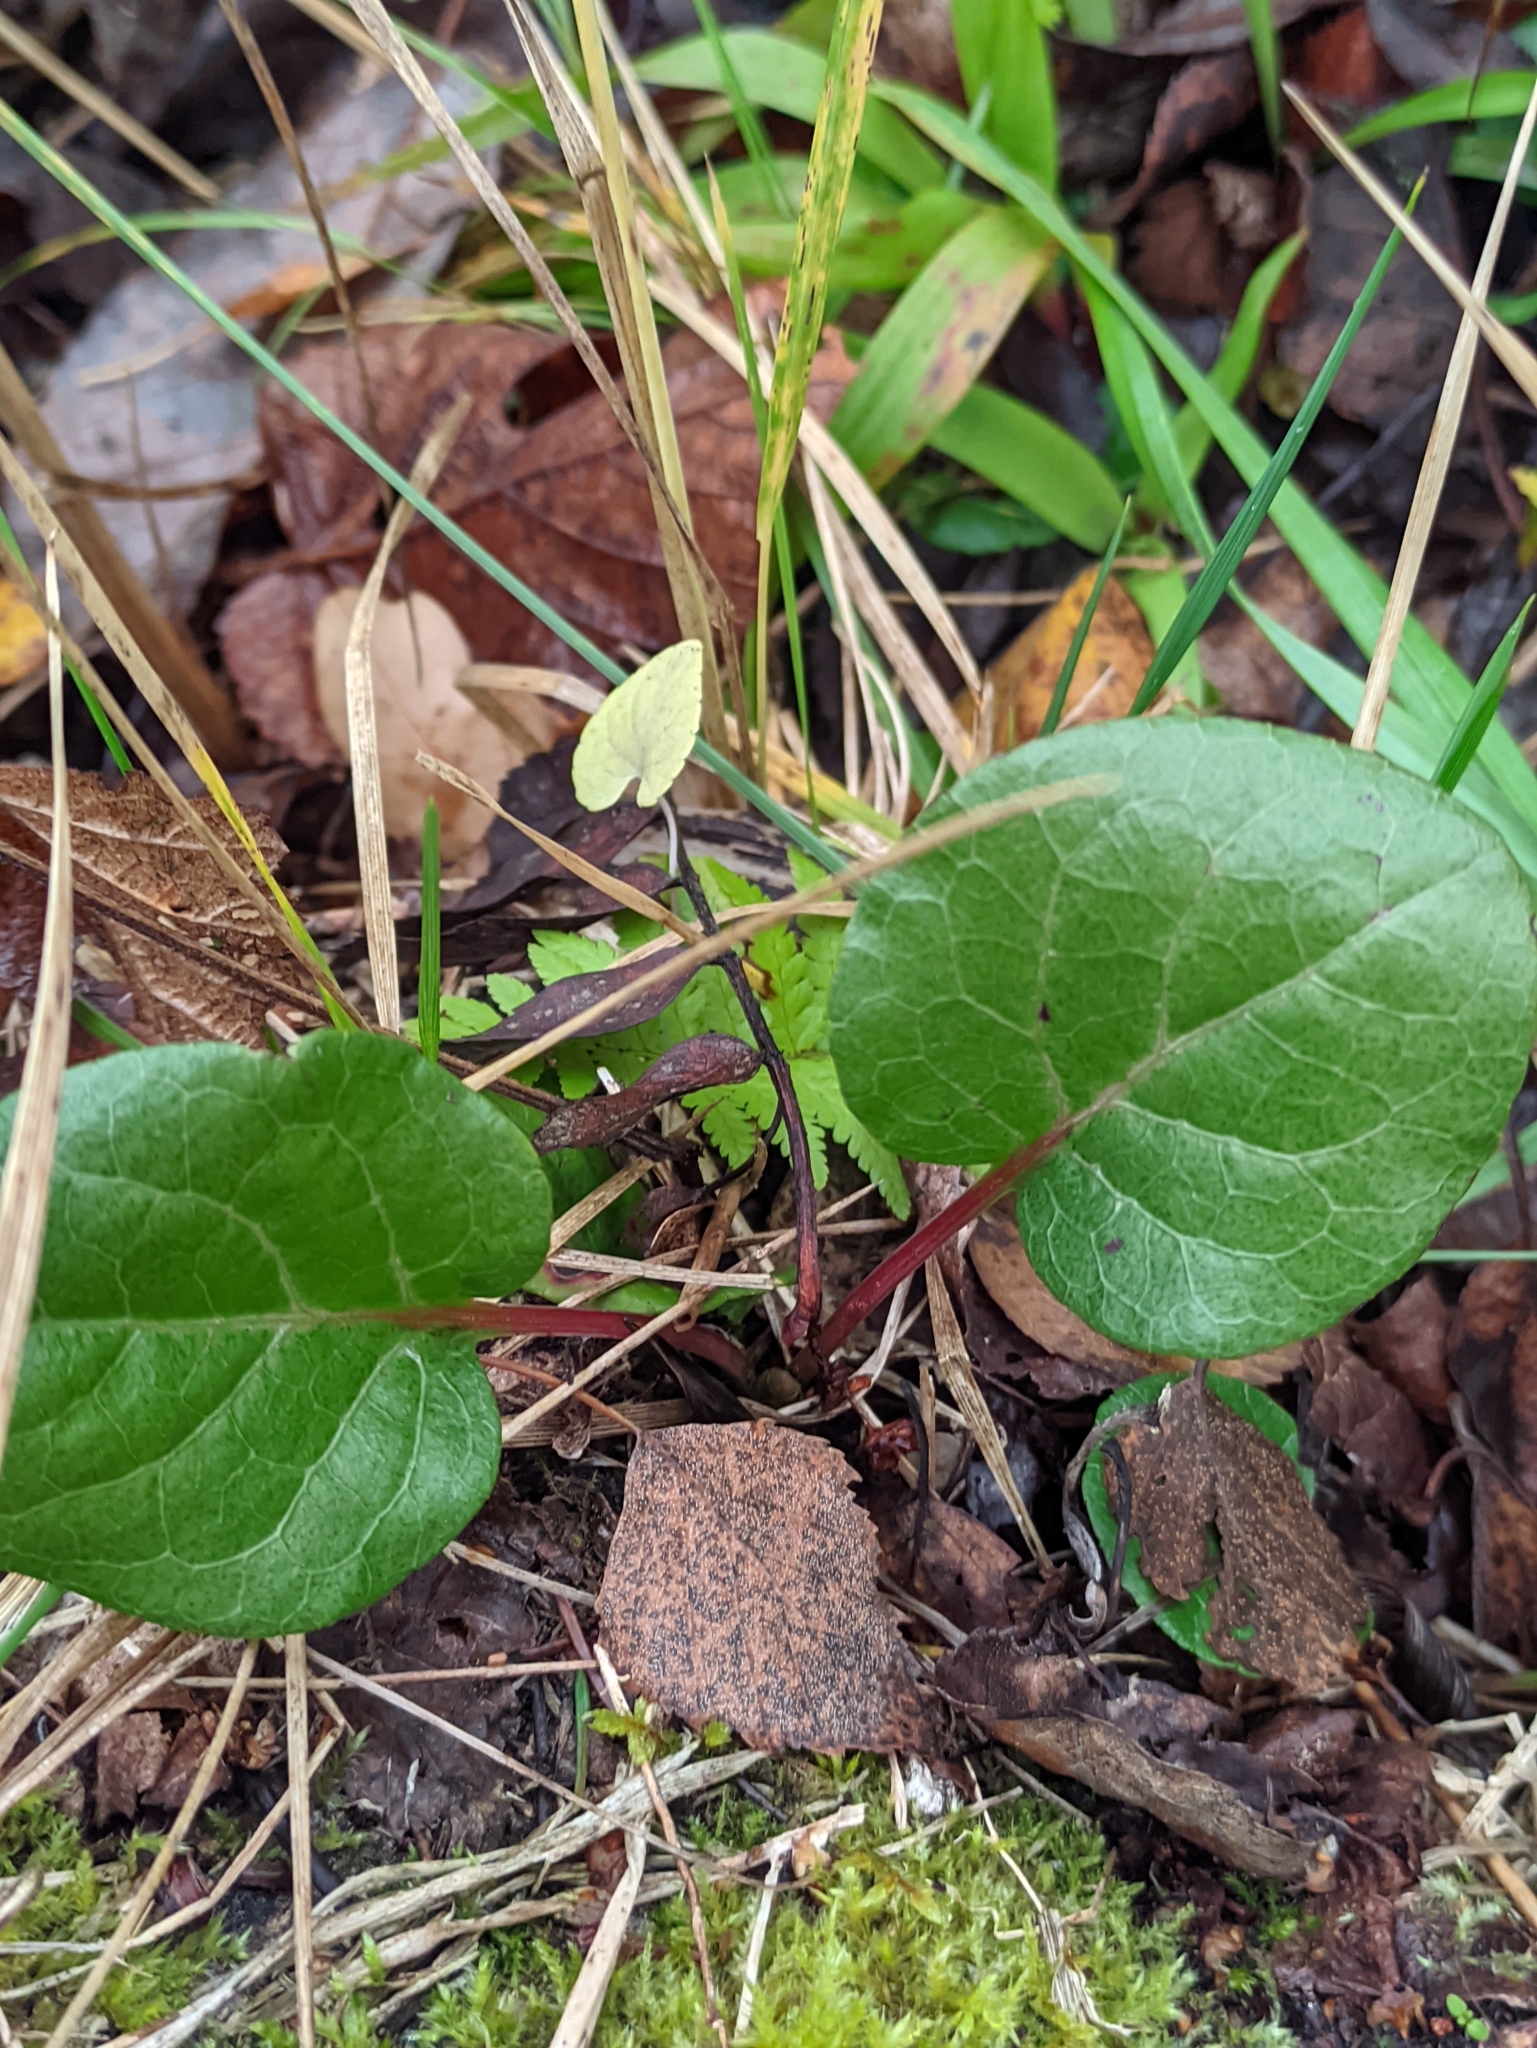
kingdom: Plantae
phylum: Tracheophyta
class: Magnoliopsida
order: Ericales
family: Ericaceae
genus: Pyrola
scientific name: Pyrola rotundifolia
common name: Round-leaved wintergreen
